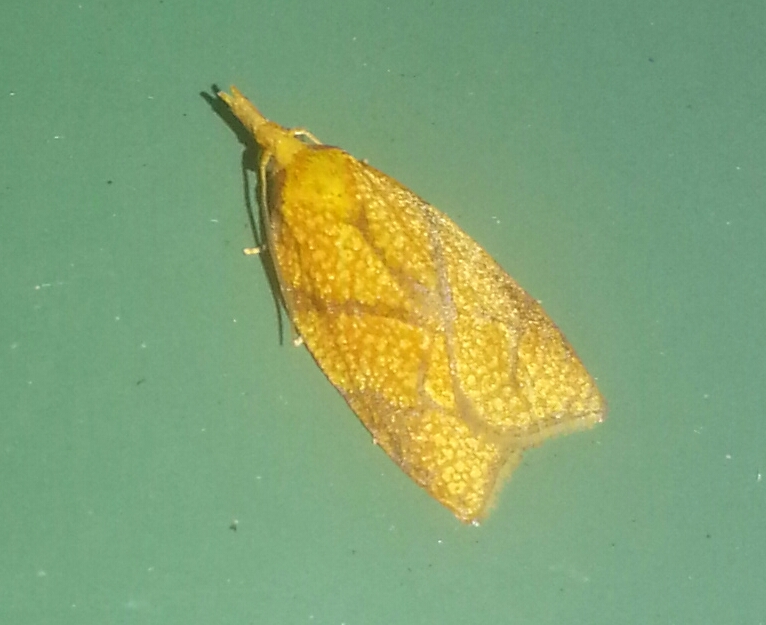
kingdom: Animalia
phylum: Arthropoda
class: Insecta
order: Lepidoptera
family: Tortricidae
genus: Cenopis
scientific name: Cenopis reticulatana
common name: Reticulated fruitworm moth
